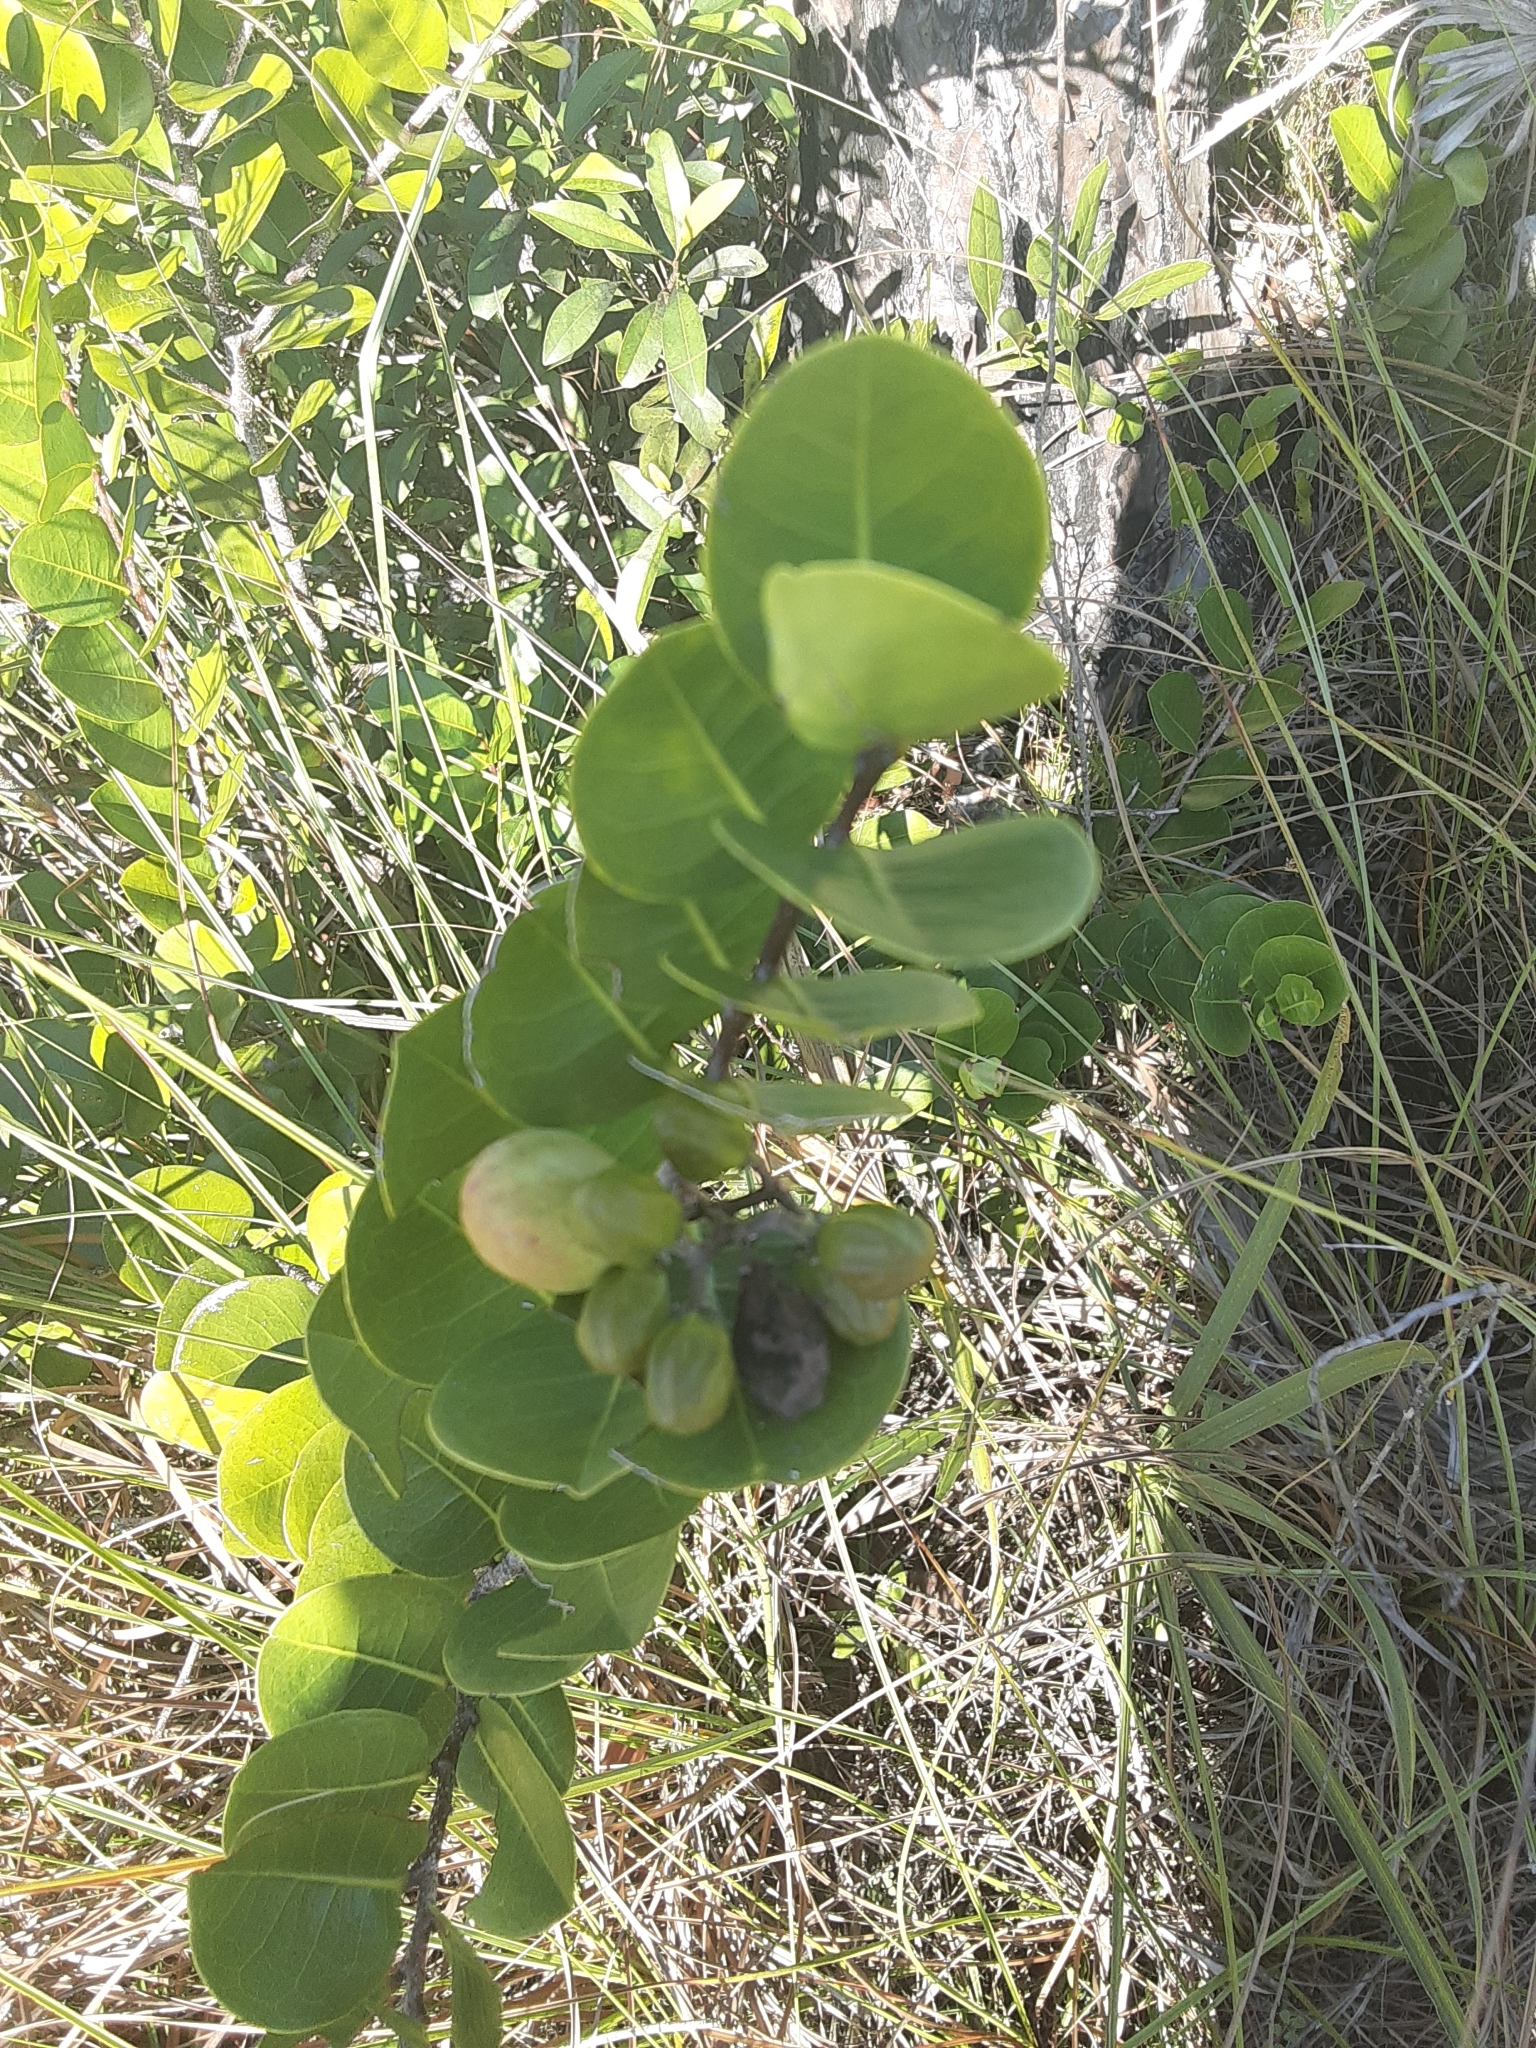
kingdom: Plantae
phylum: Tracheophyta
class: Magnoliopsida
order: Malpighiales
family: Chrysobalanaceae
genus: Chrysobalanus
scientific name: Chrysobalanus icaco
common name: Coco plum
